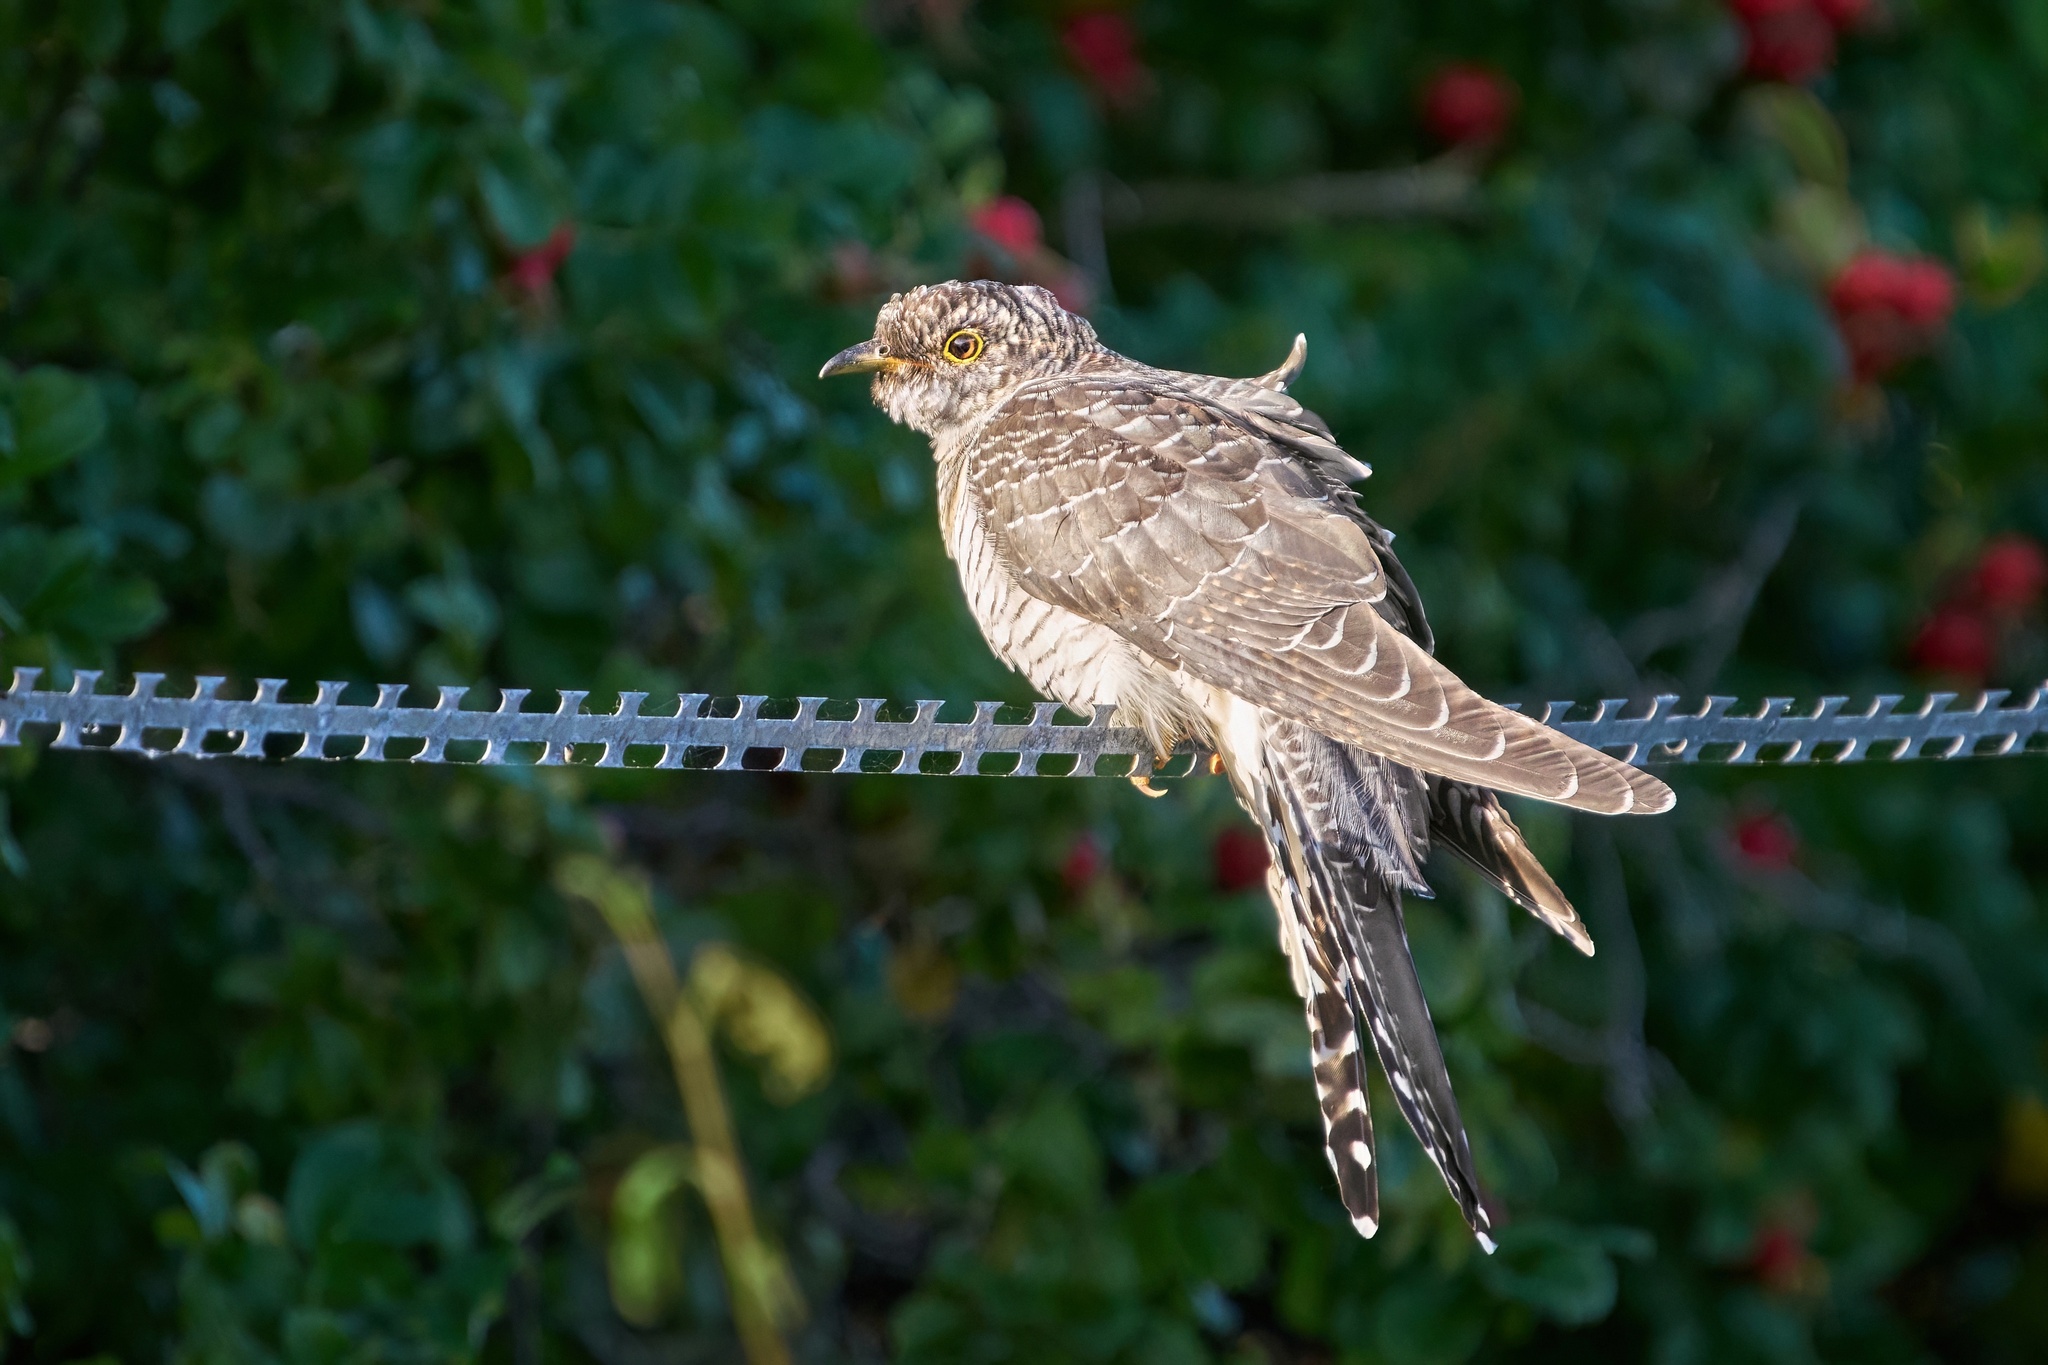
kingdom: Animalia
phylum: Chordata
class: Aves
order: Cuculiformes
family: Cuculidae
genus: Cuculus
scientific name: Cuculus canorus
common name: Common cuckoo
